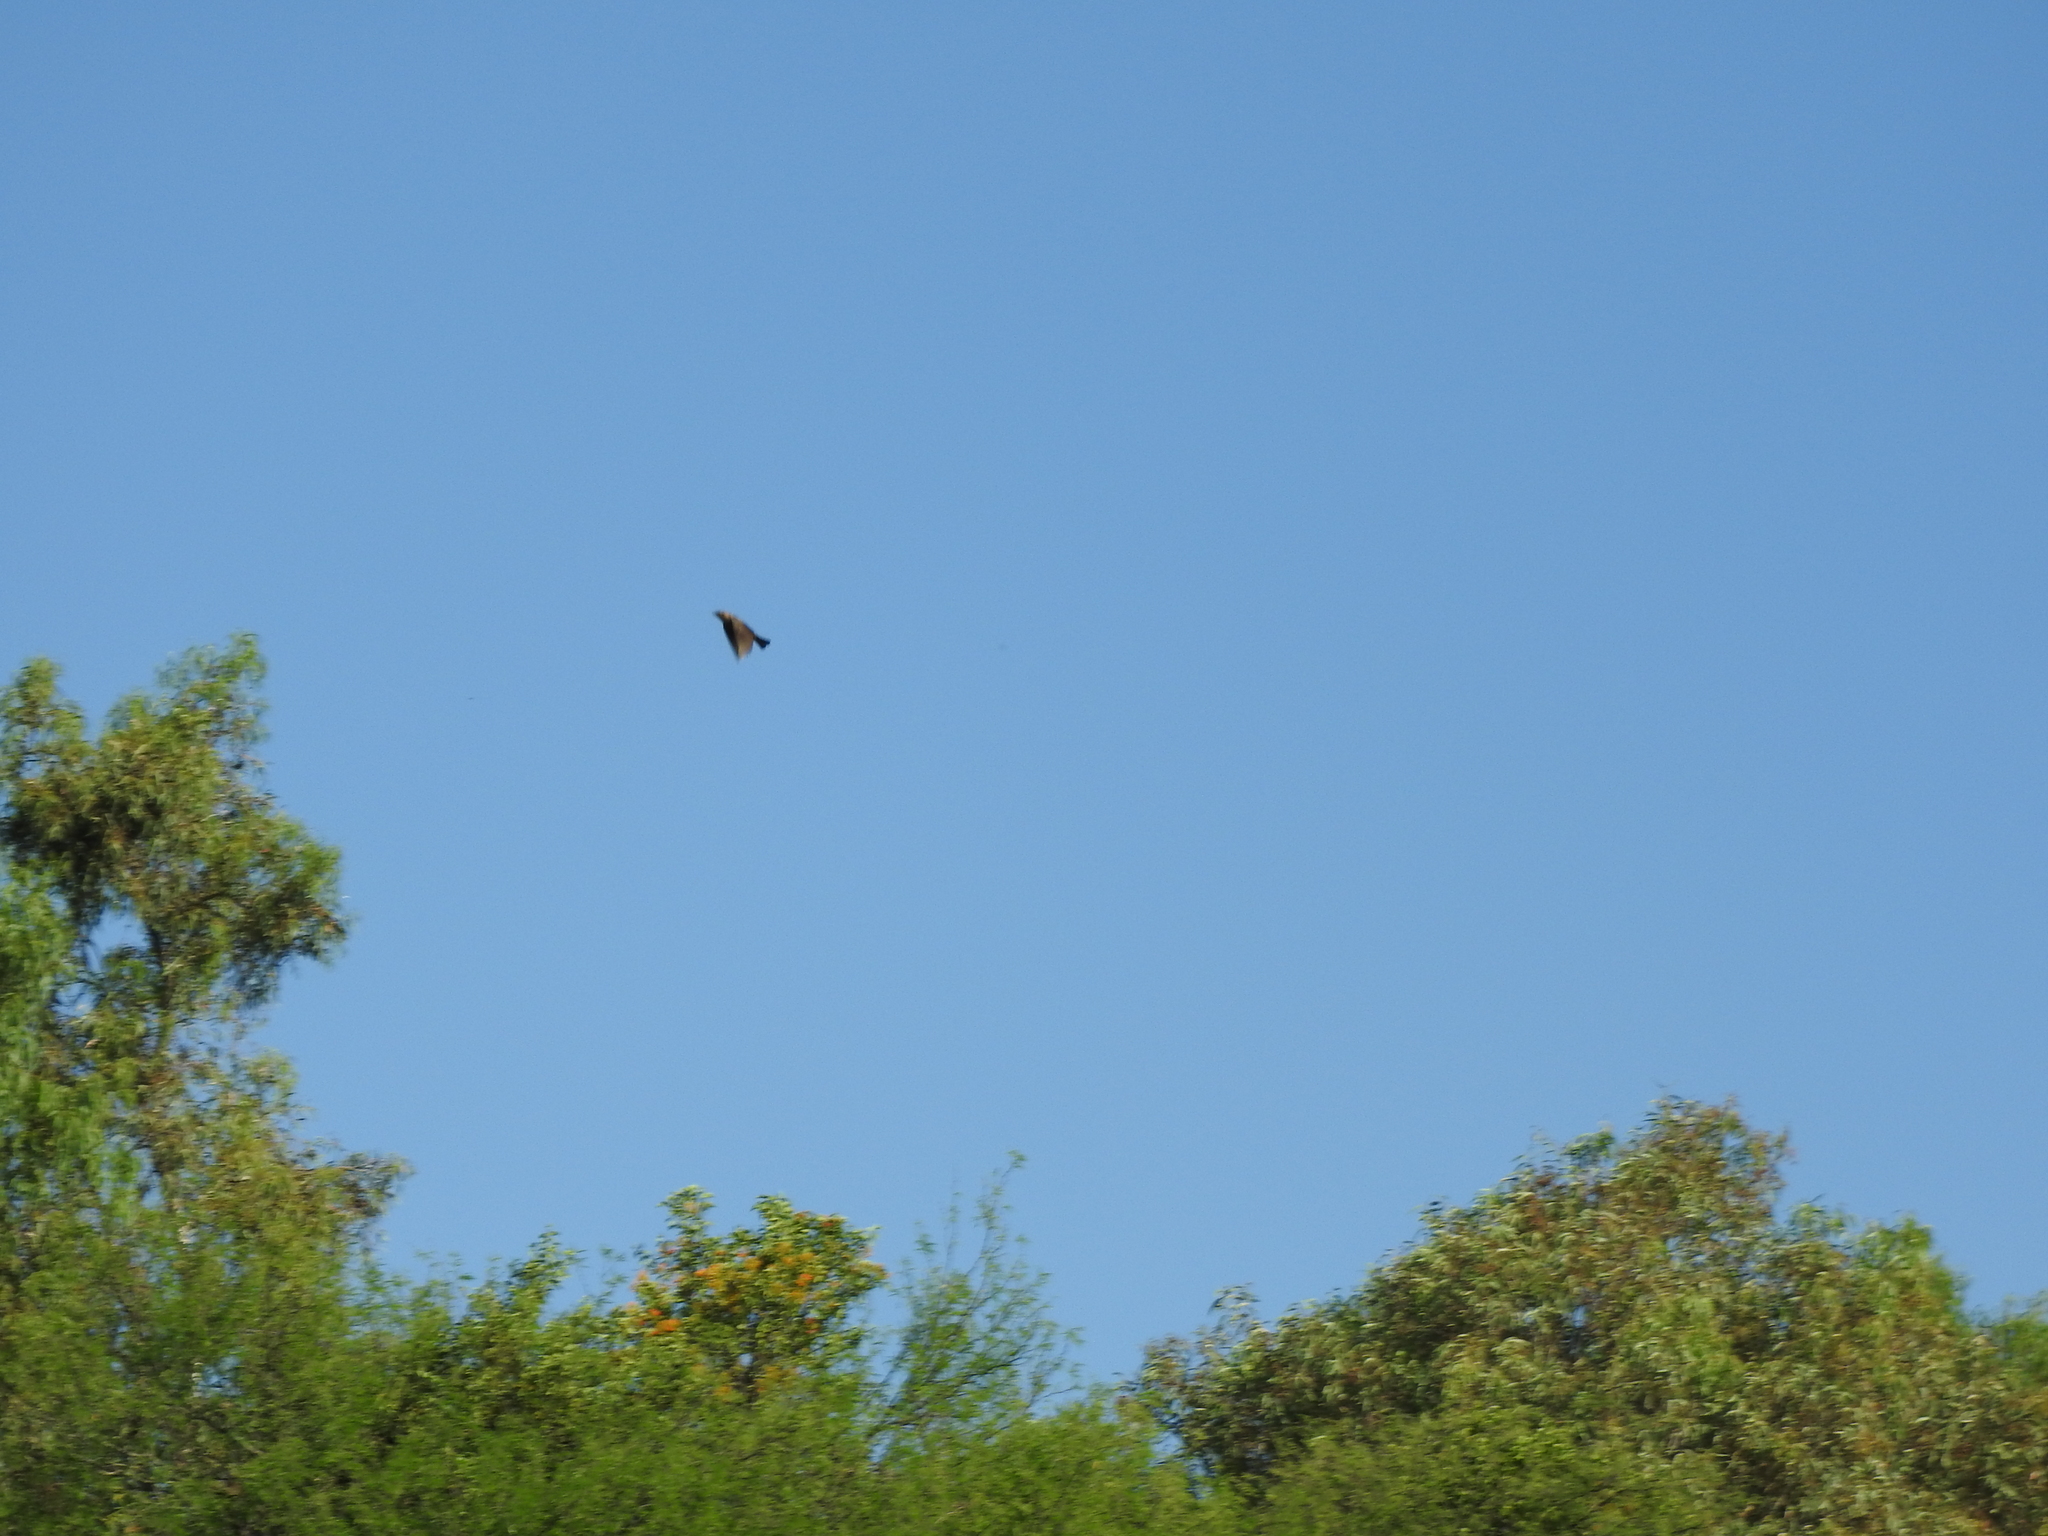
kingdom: Animalia
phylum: Chordata
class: Aves
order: Passeriformes
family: Icteridae
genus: Molothrus
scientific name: Molothrus ater
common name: Brown-headed cowbird
